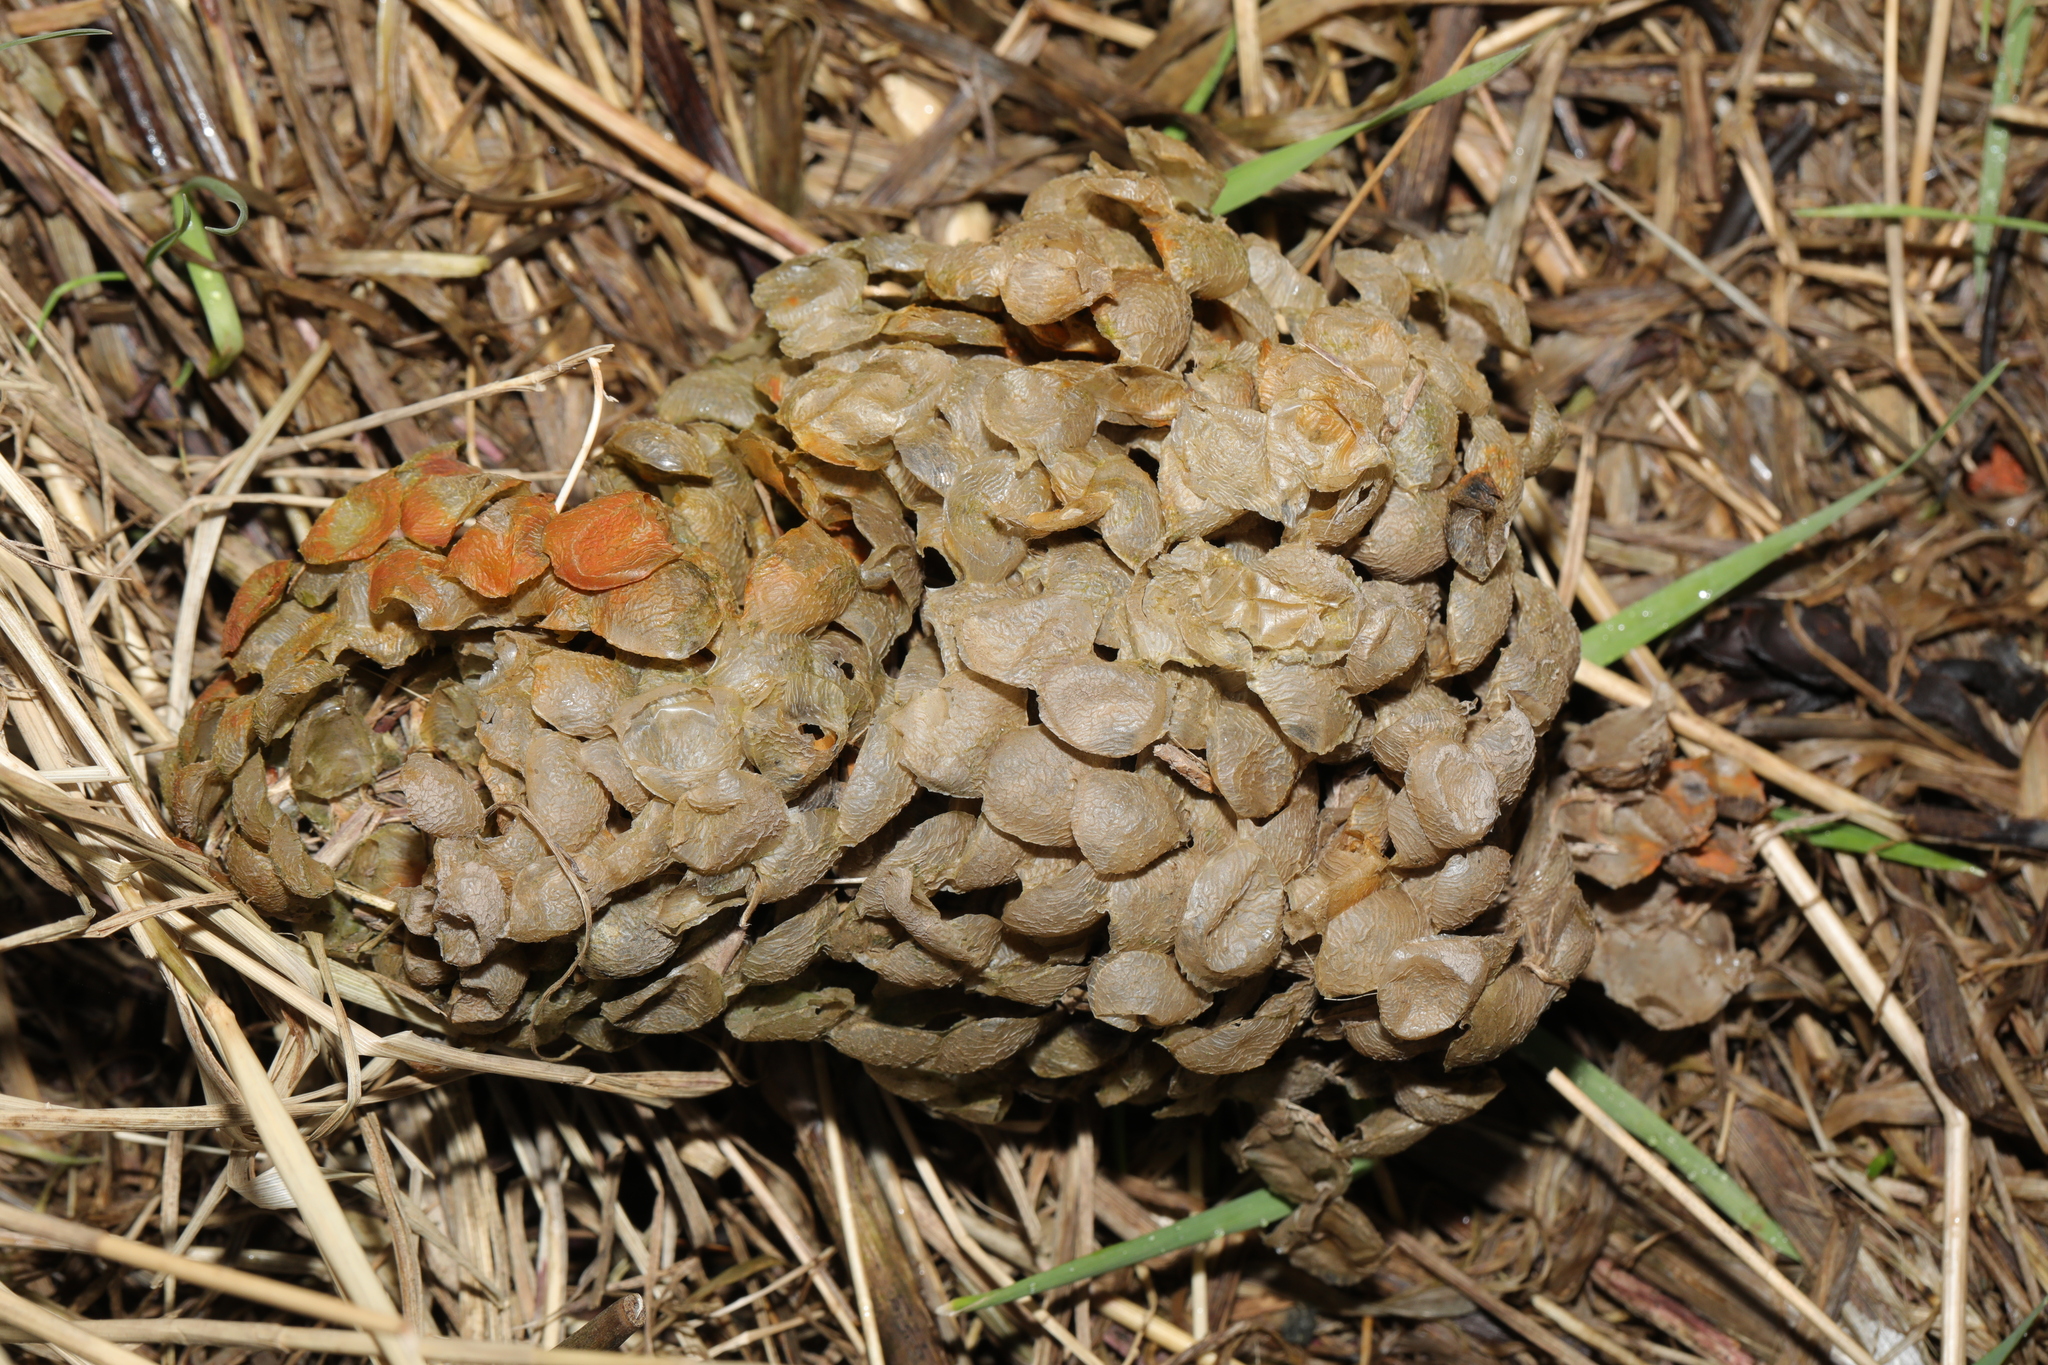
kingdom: Animalia
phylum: Mollusca
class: Gastropoda
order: Neogastropoda
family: Buccinidae
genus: Buccinum
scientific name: Buccinum undatum
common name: Common whelk
